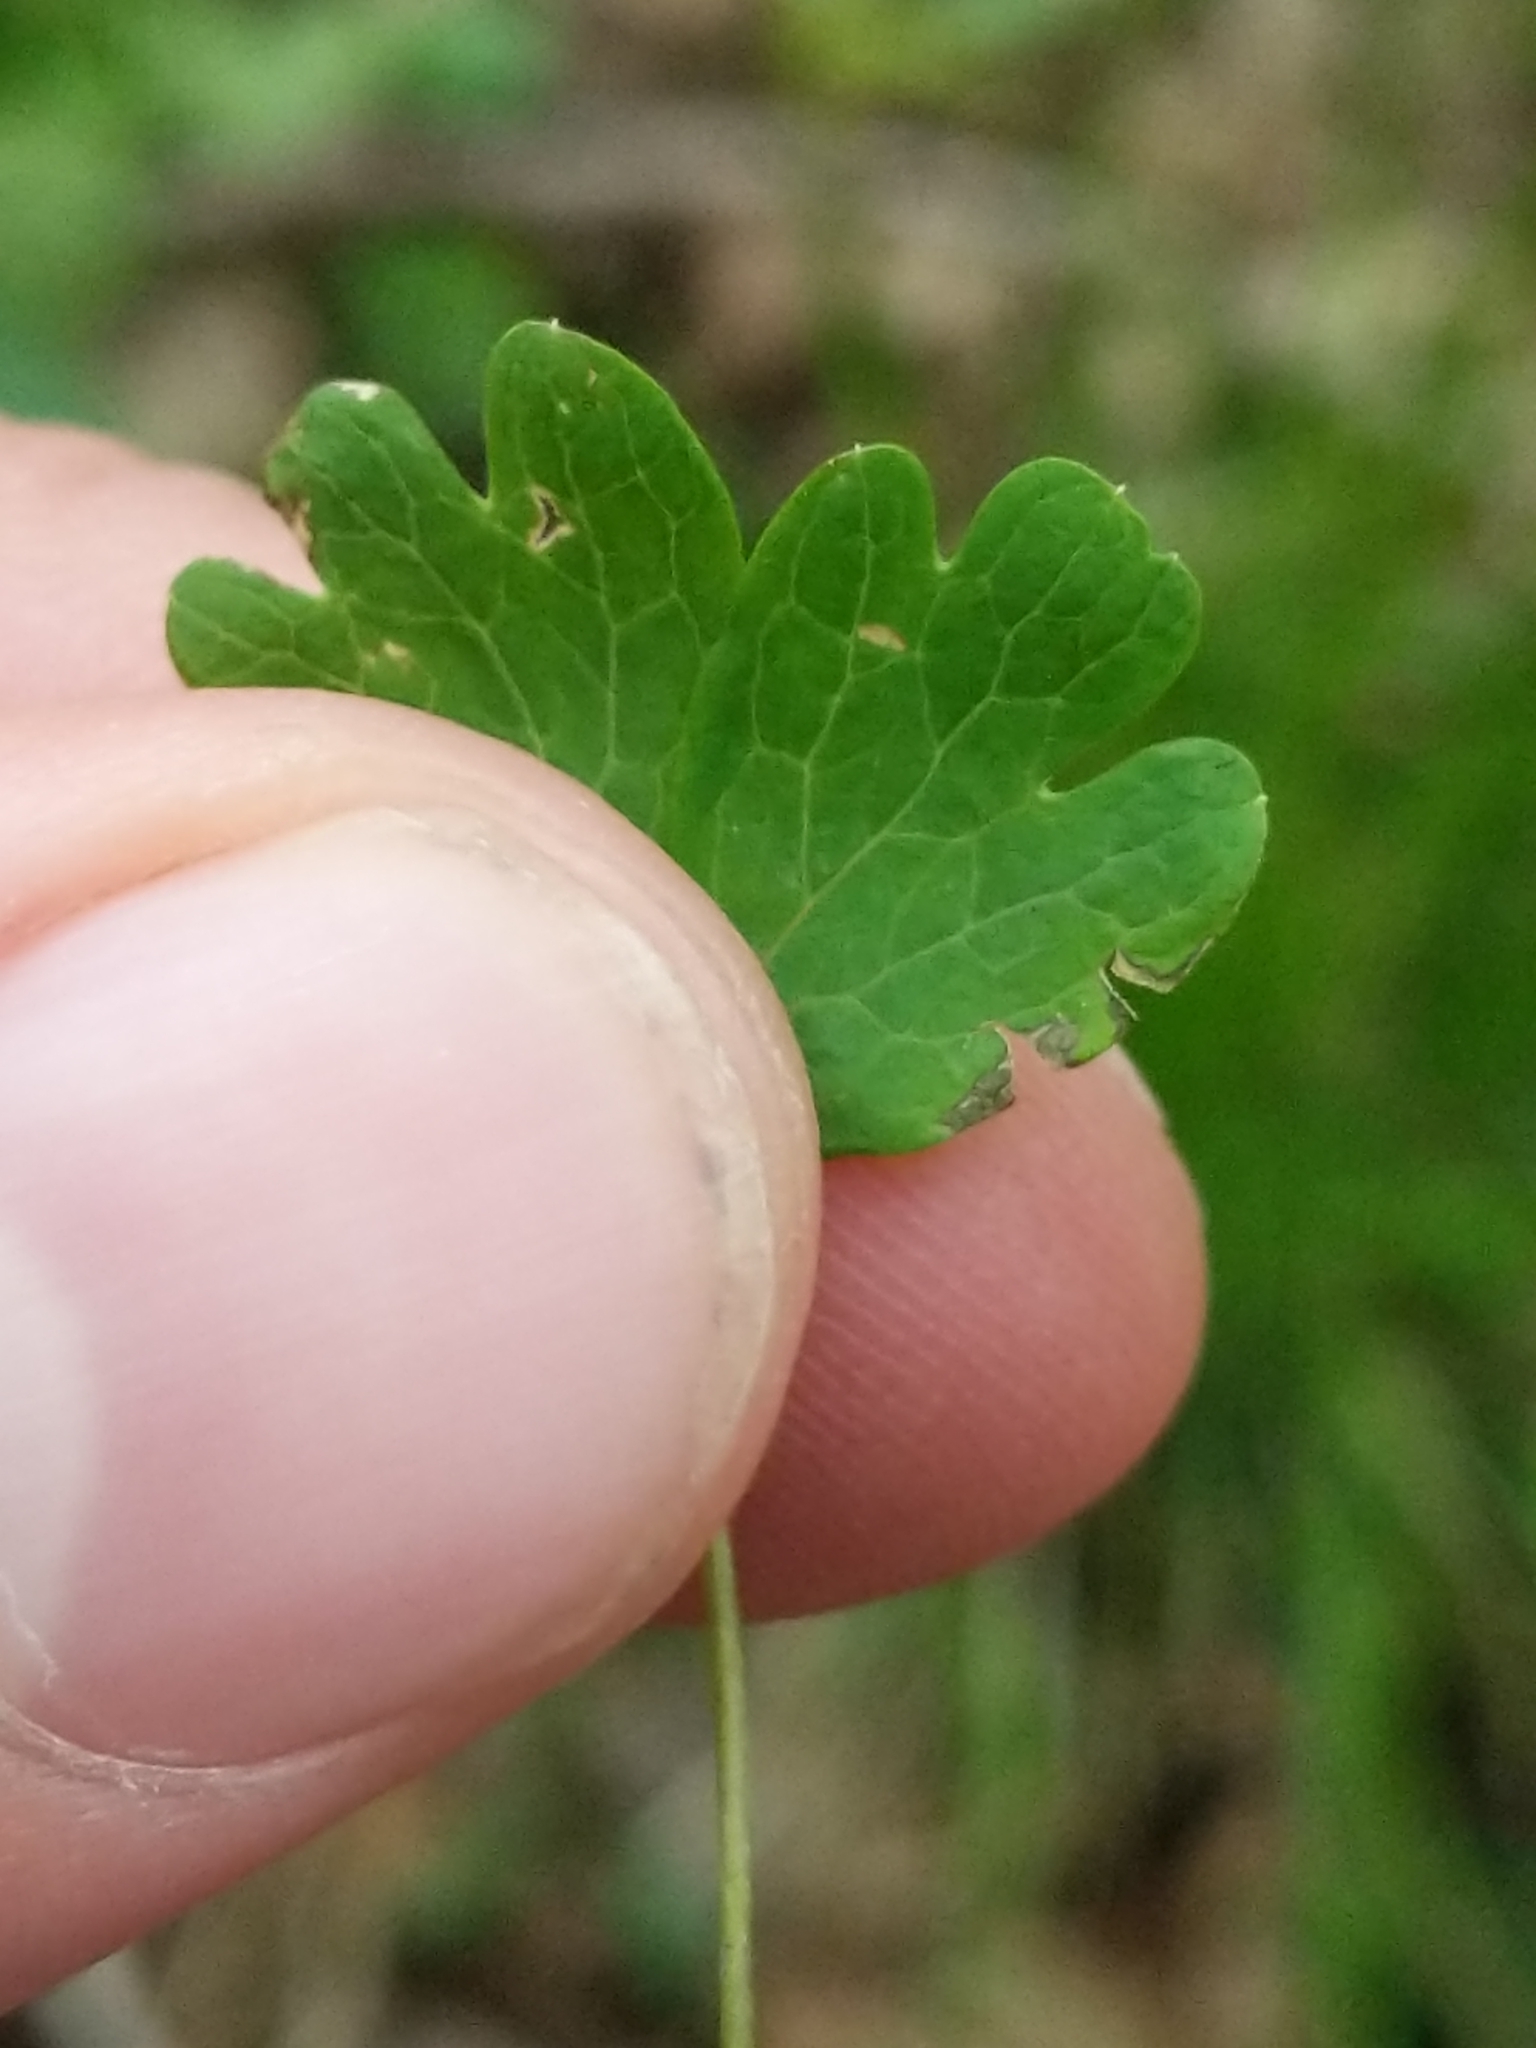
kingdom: Plantae
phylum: Tracheophyta
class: Magnoliopsida
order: Ranunculales
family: Ranunculaceae
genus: Enemion
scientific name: Enemion biternatum
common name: Eastern false rue-anemone
